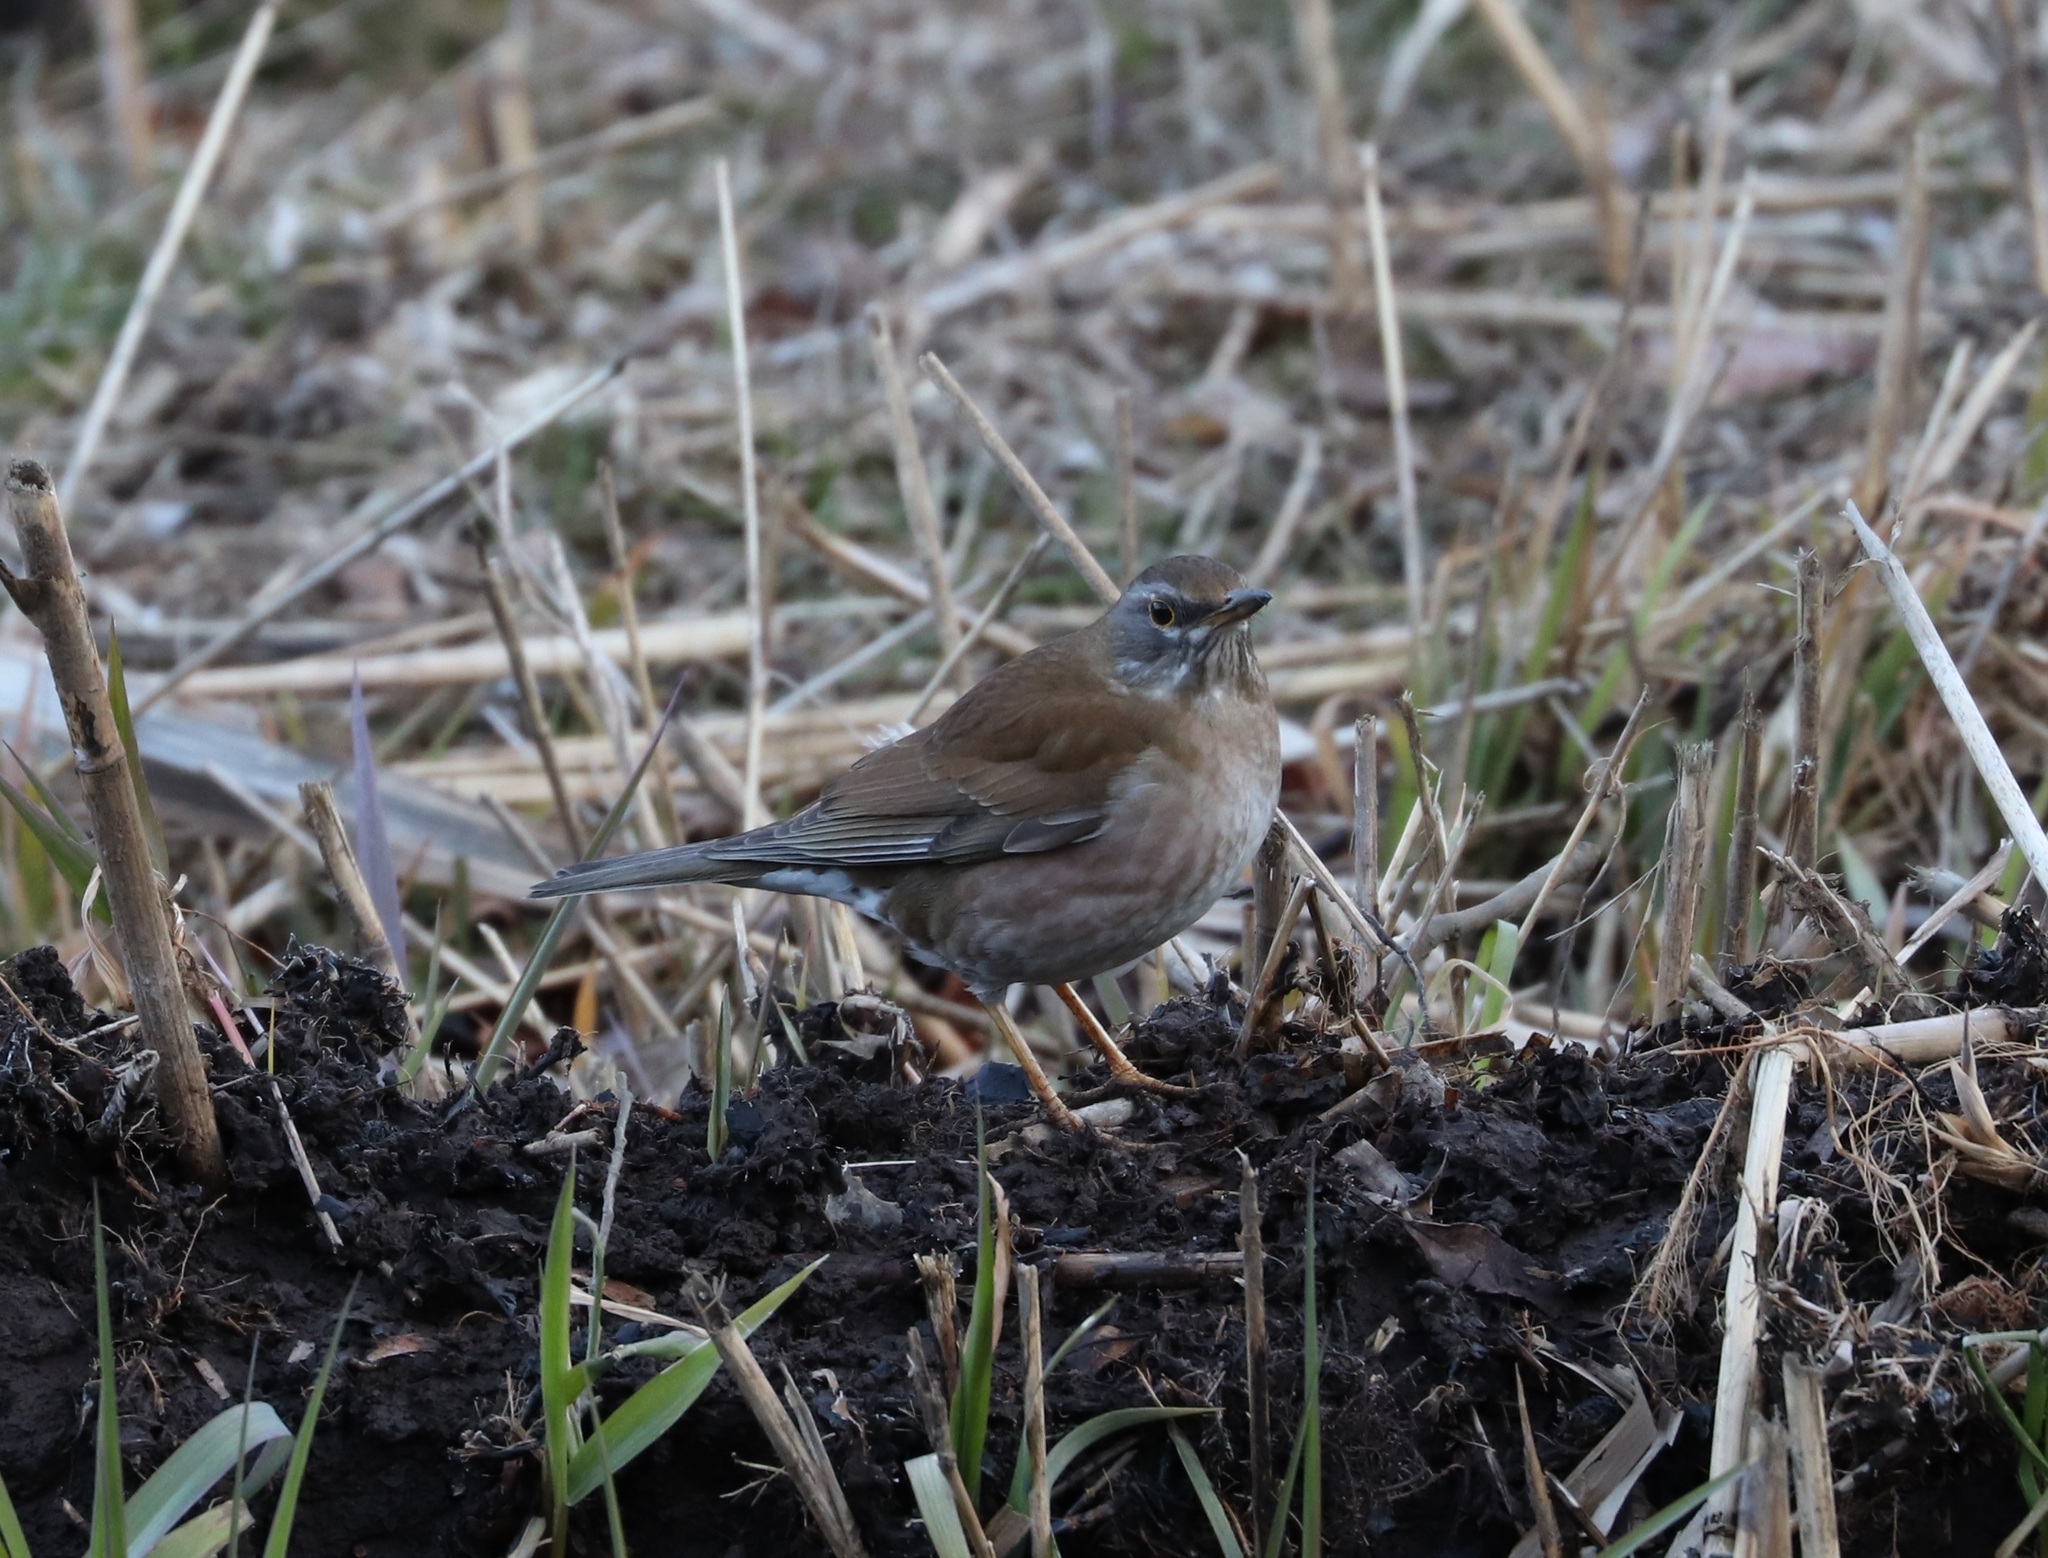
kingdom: Animalia
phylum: Chordata
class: Aves
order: Passeriformes
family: Turdidae
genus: Turdus
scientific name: Turdus pallidus
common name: Pale thrush
